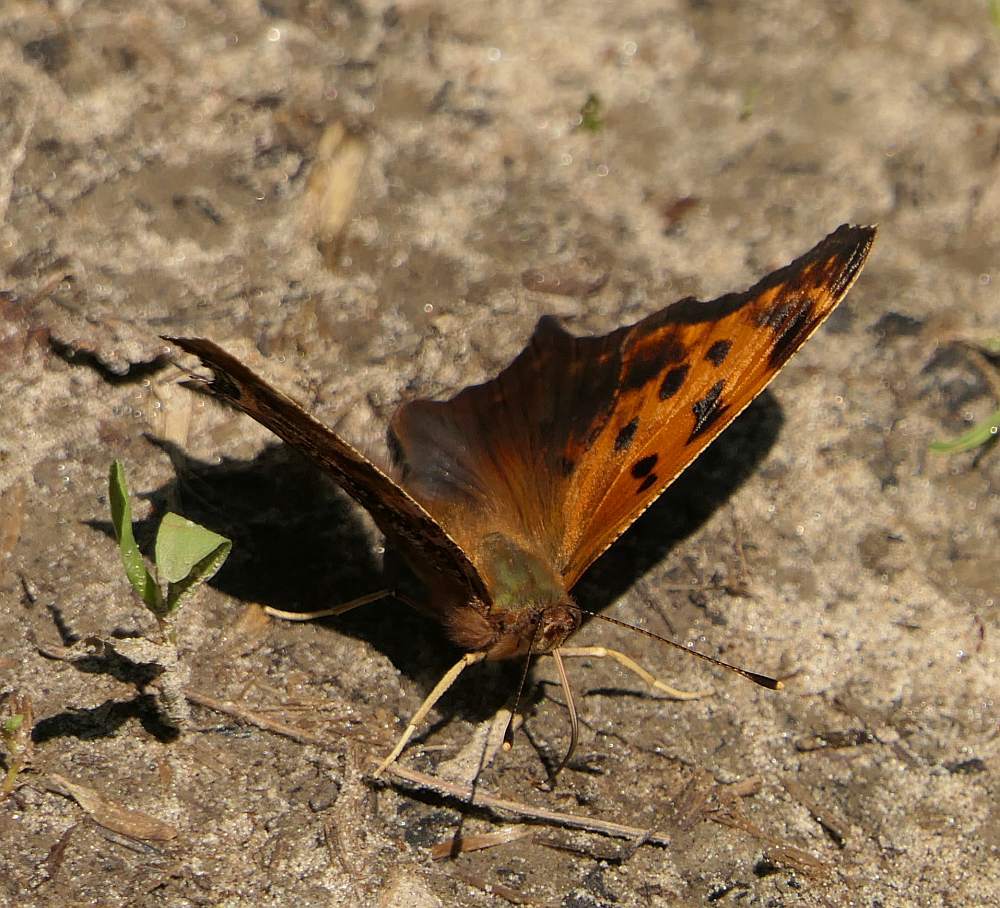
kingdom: Animalia
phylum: Arthropoda
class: Insecta
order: Lepidoptera
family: Nymphalidae
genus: Polygonia
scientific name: Polygonia comma
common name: Eastern comma
